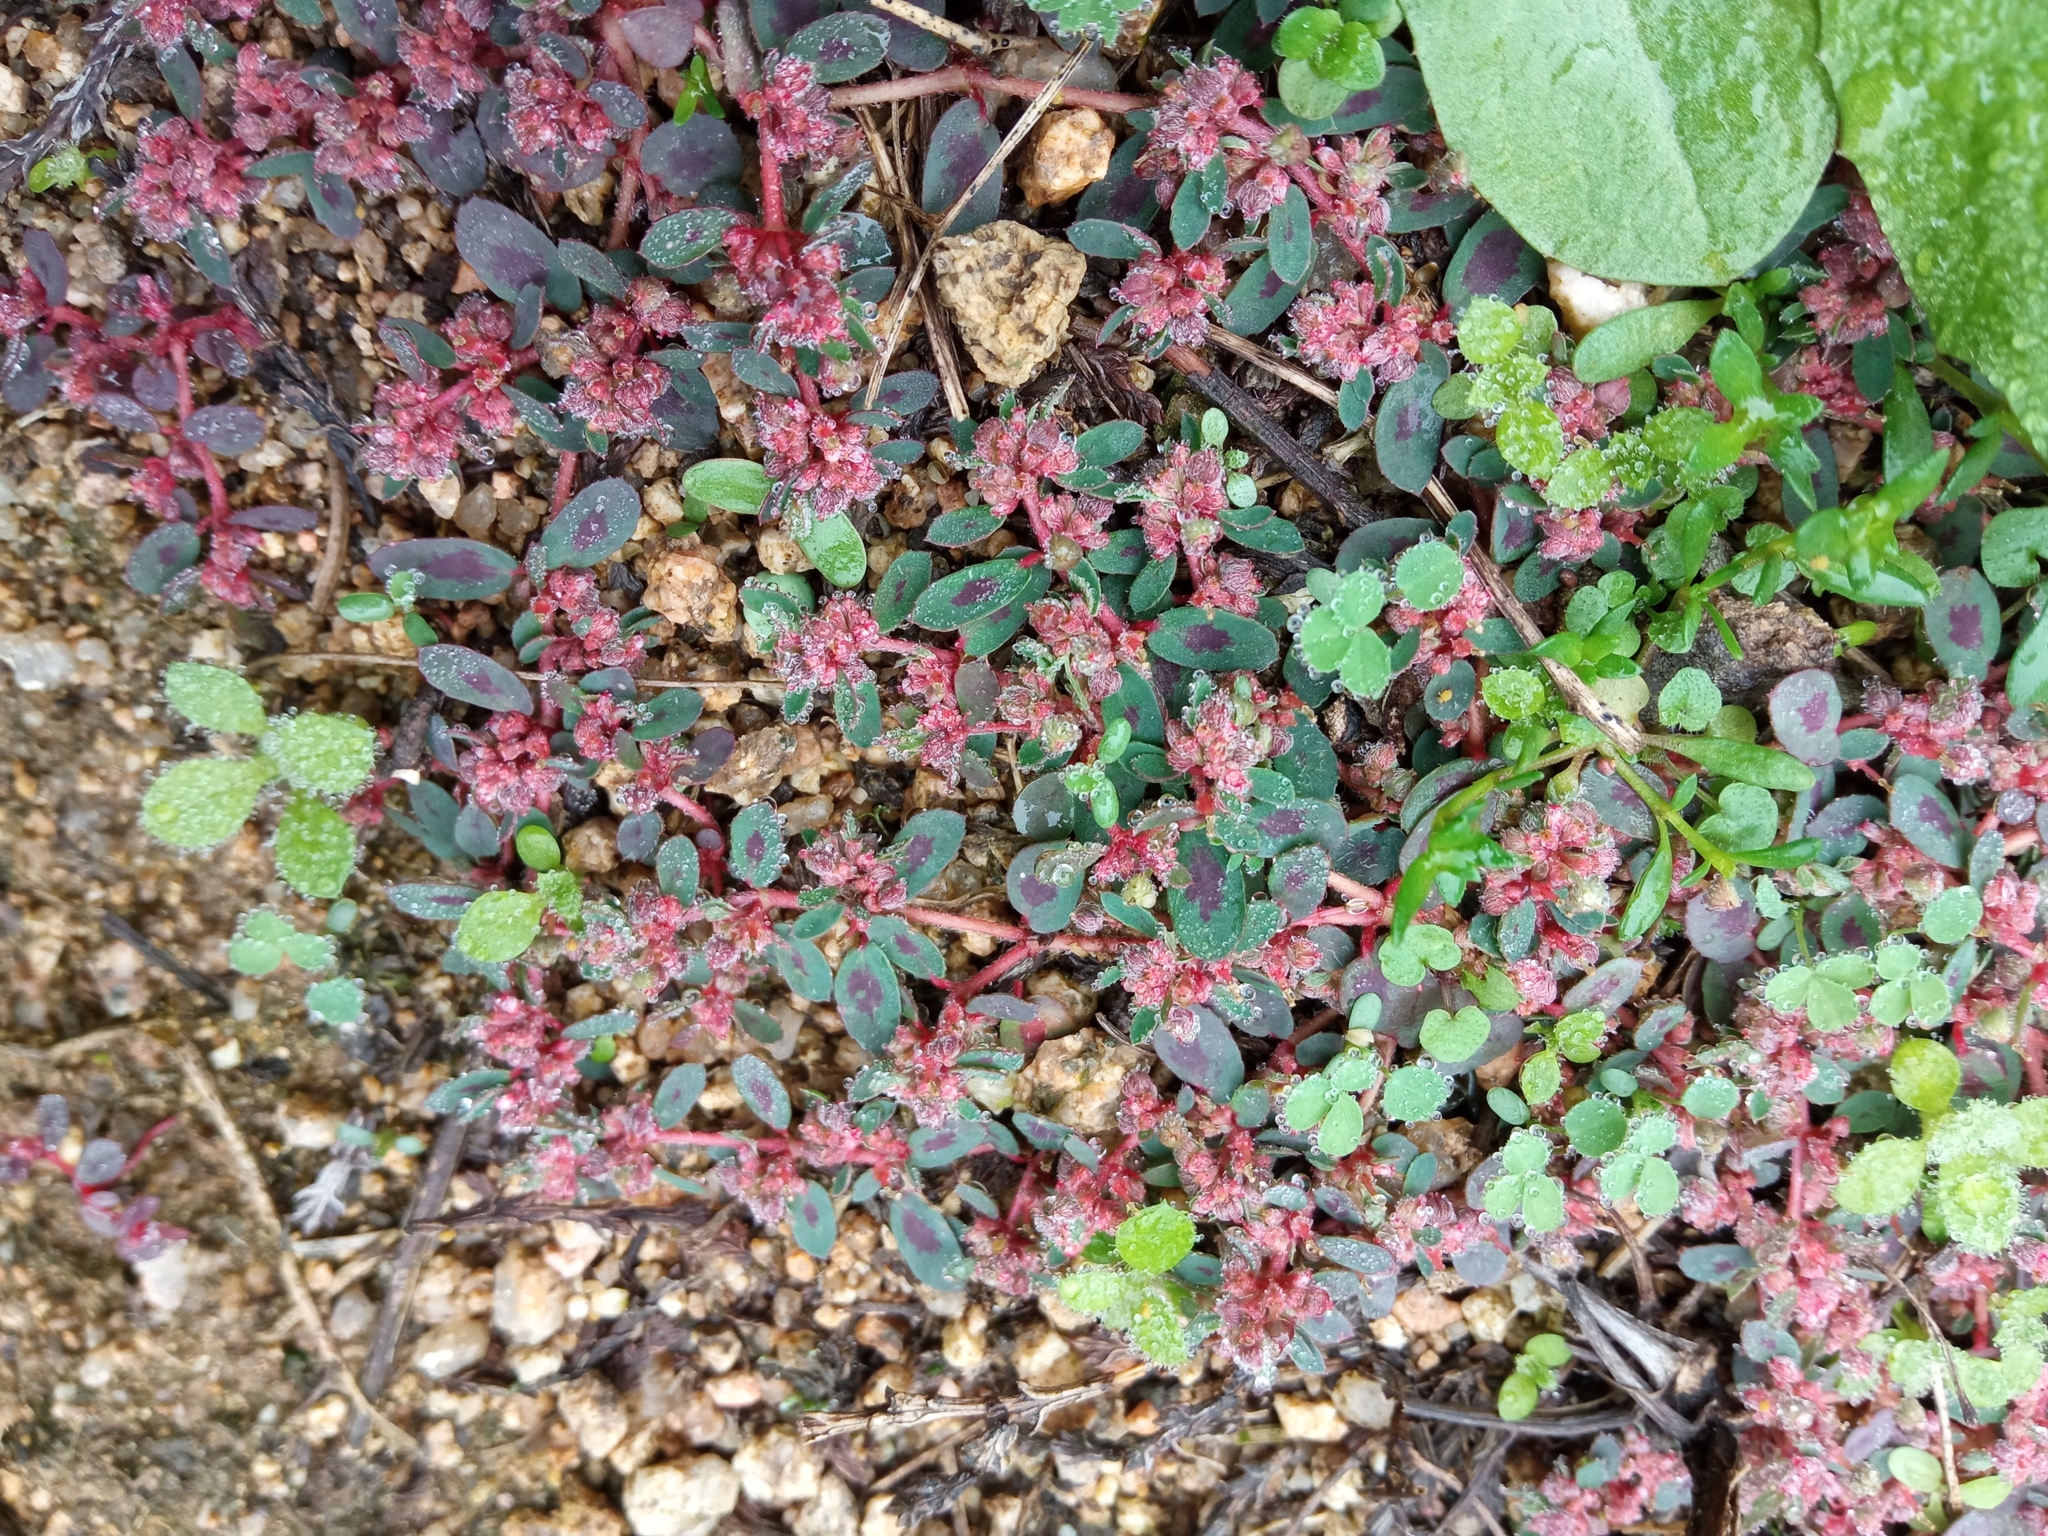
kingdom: Plantae
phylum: Tracheophyta
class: Magnoliopsida
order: Malpighiales
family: Euphorbiaceae
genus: Euphorbia
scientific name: Euphorbia maculata
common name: Spotted spurge
